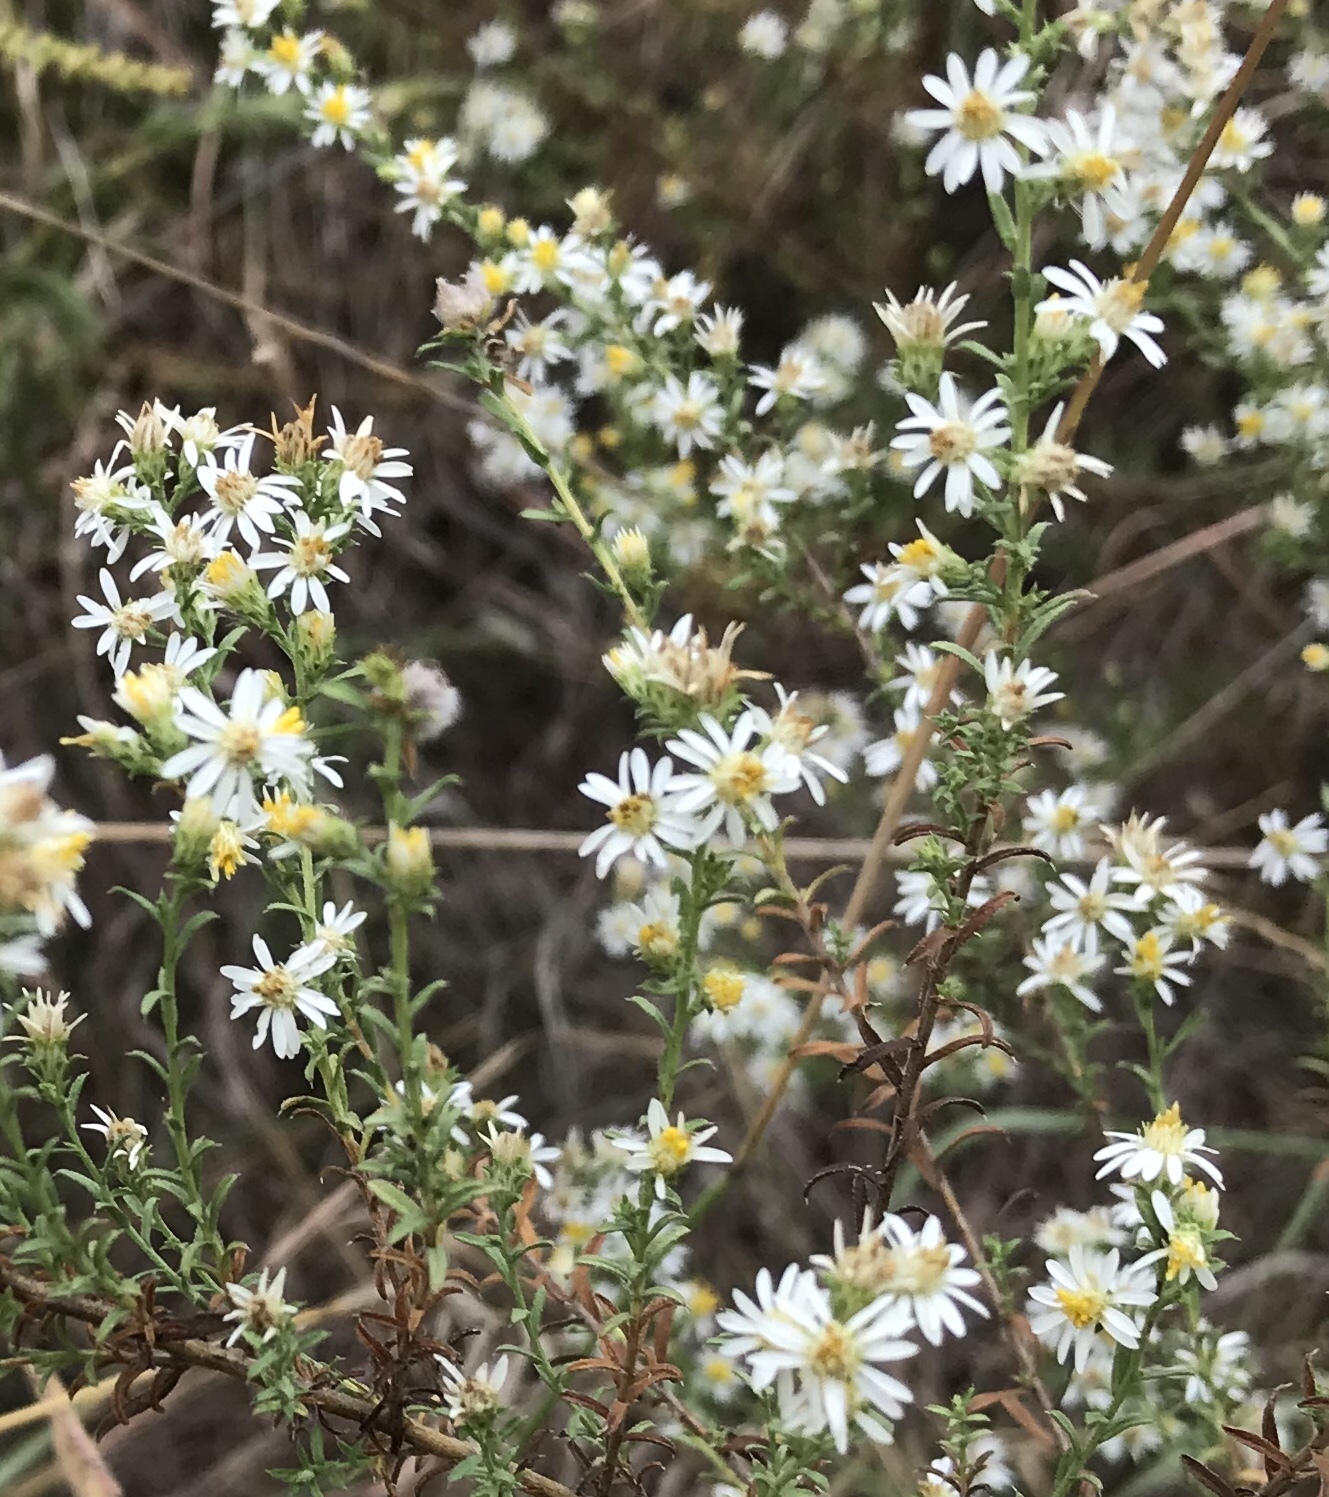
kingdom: Plantae
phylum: Tracheophyta
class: Magnoliopsida
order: Asterales
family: Asteraceae
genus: Symphyotrichum
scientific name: Symphyotrichum ericoides
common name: Heath aster
